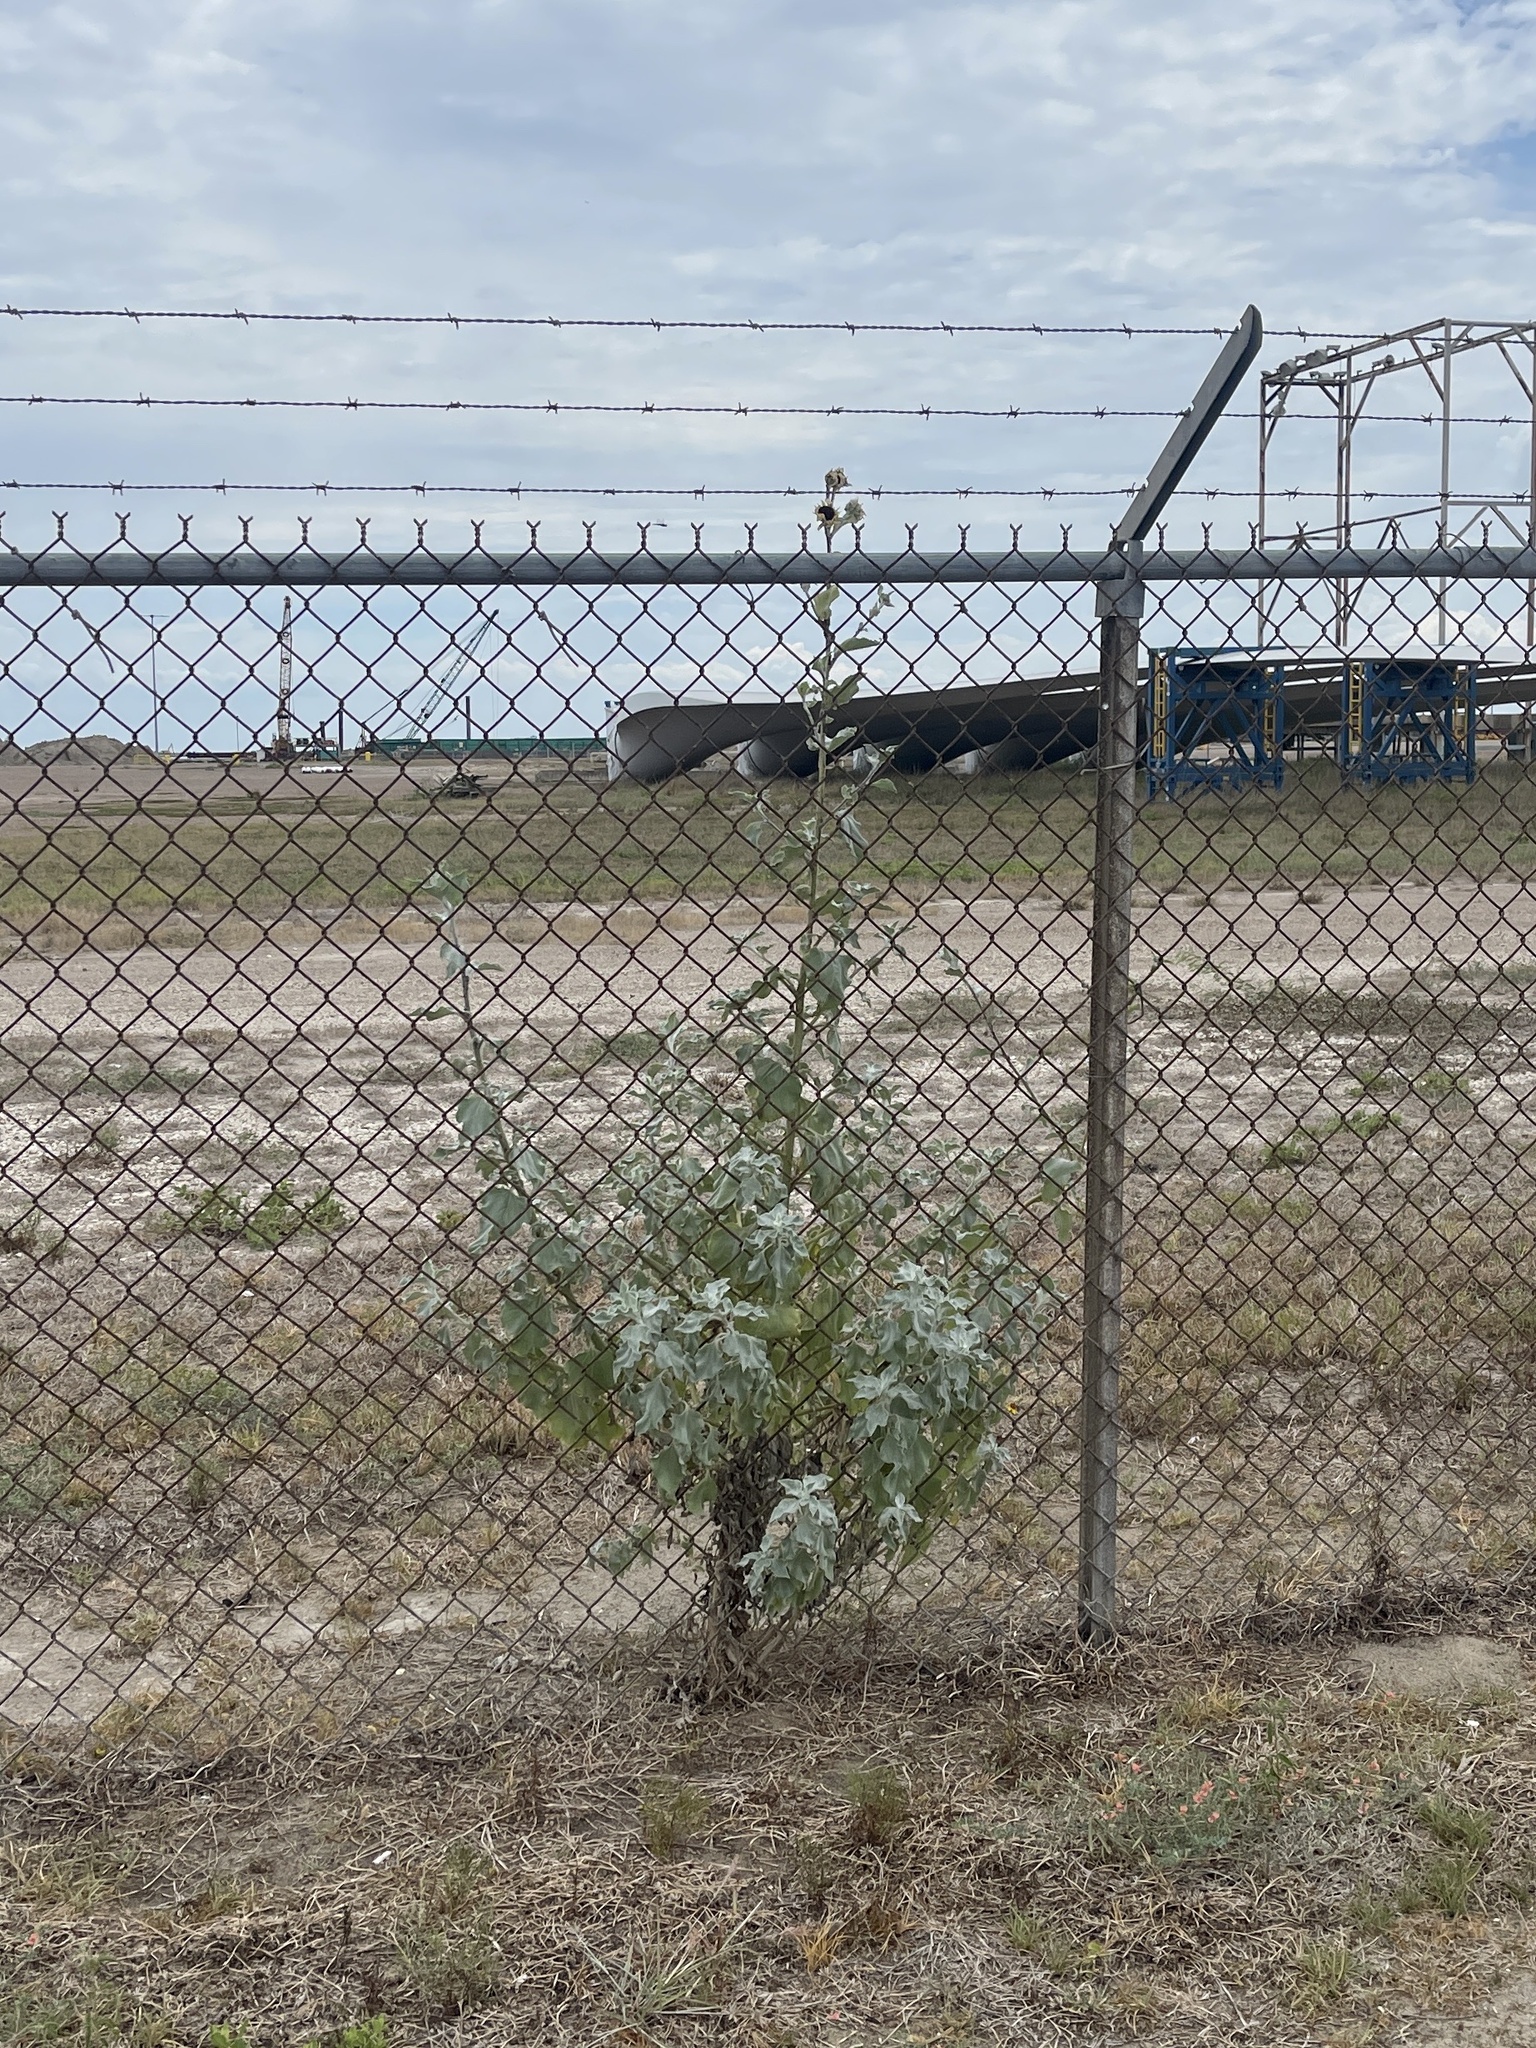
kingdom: Plantae
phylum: Tracheophyta
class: Magnoliopsida
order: Asterales
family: Asteraceae
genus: Helianthus
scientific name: Helianthus argophyllus
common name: Silverleaf sunflower
